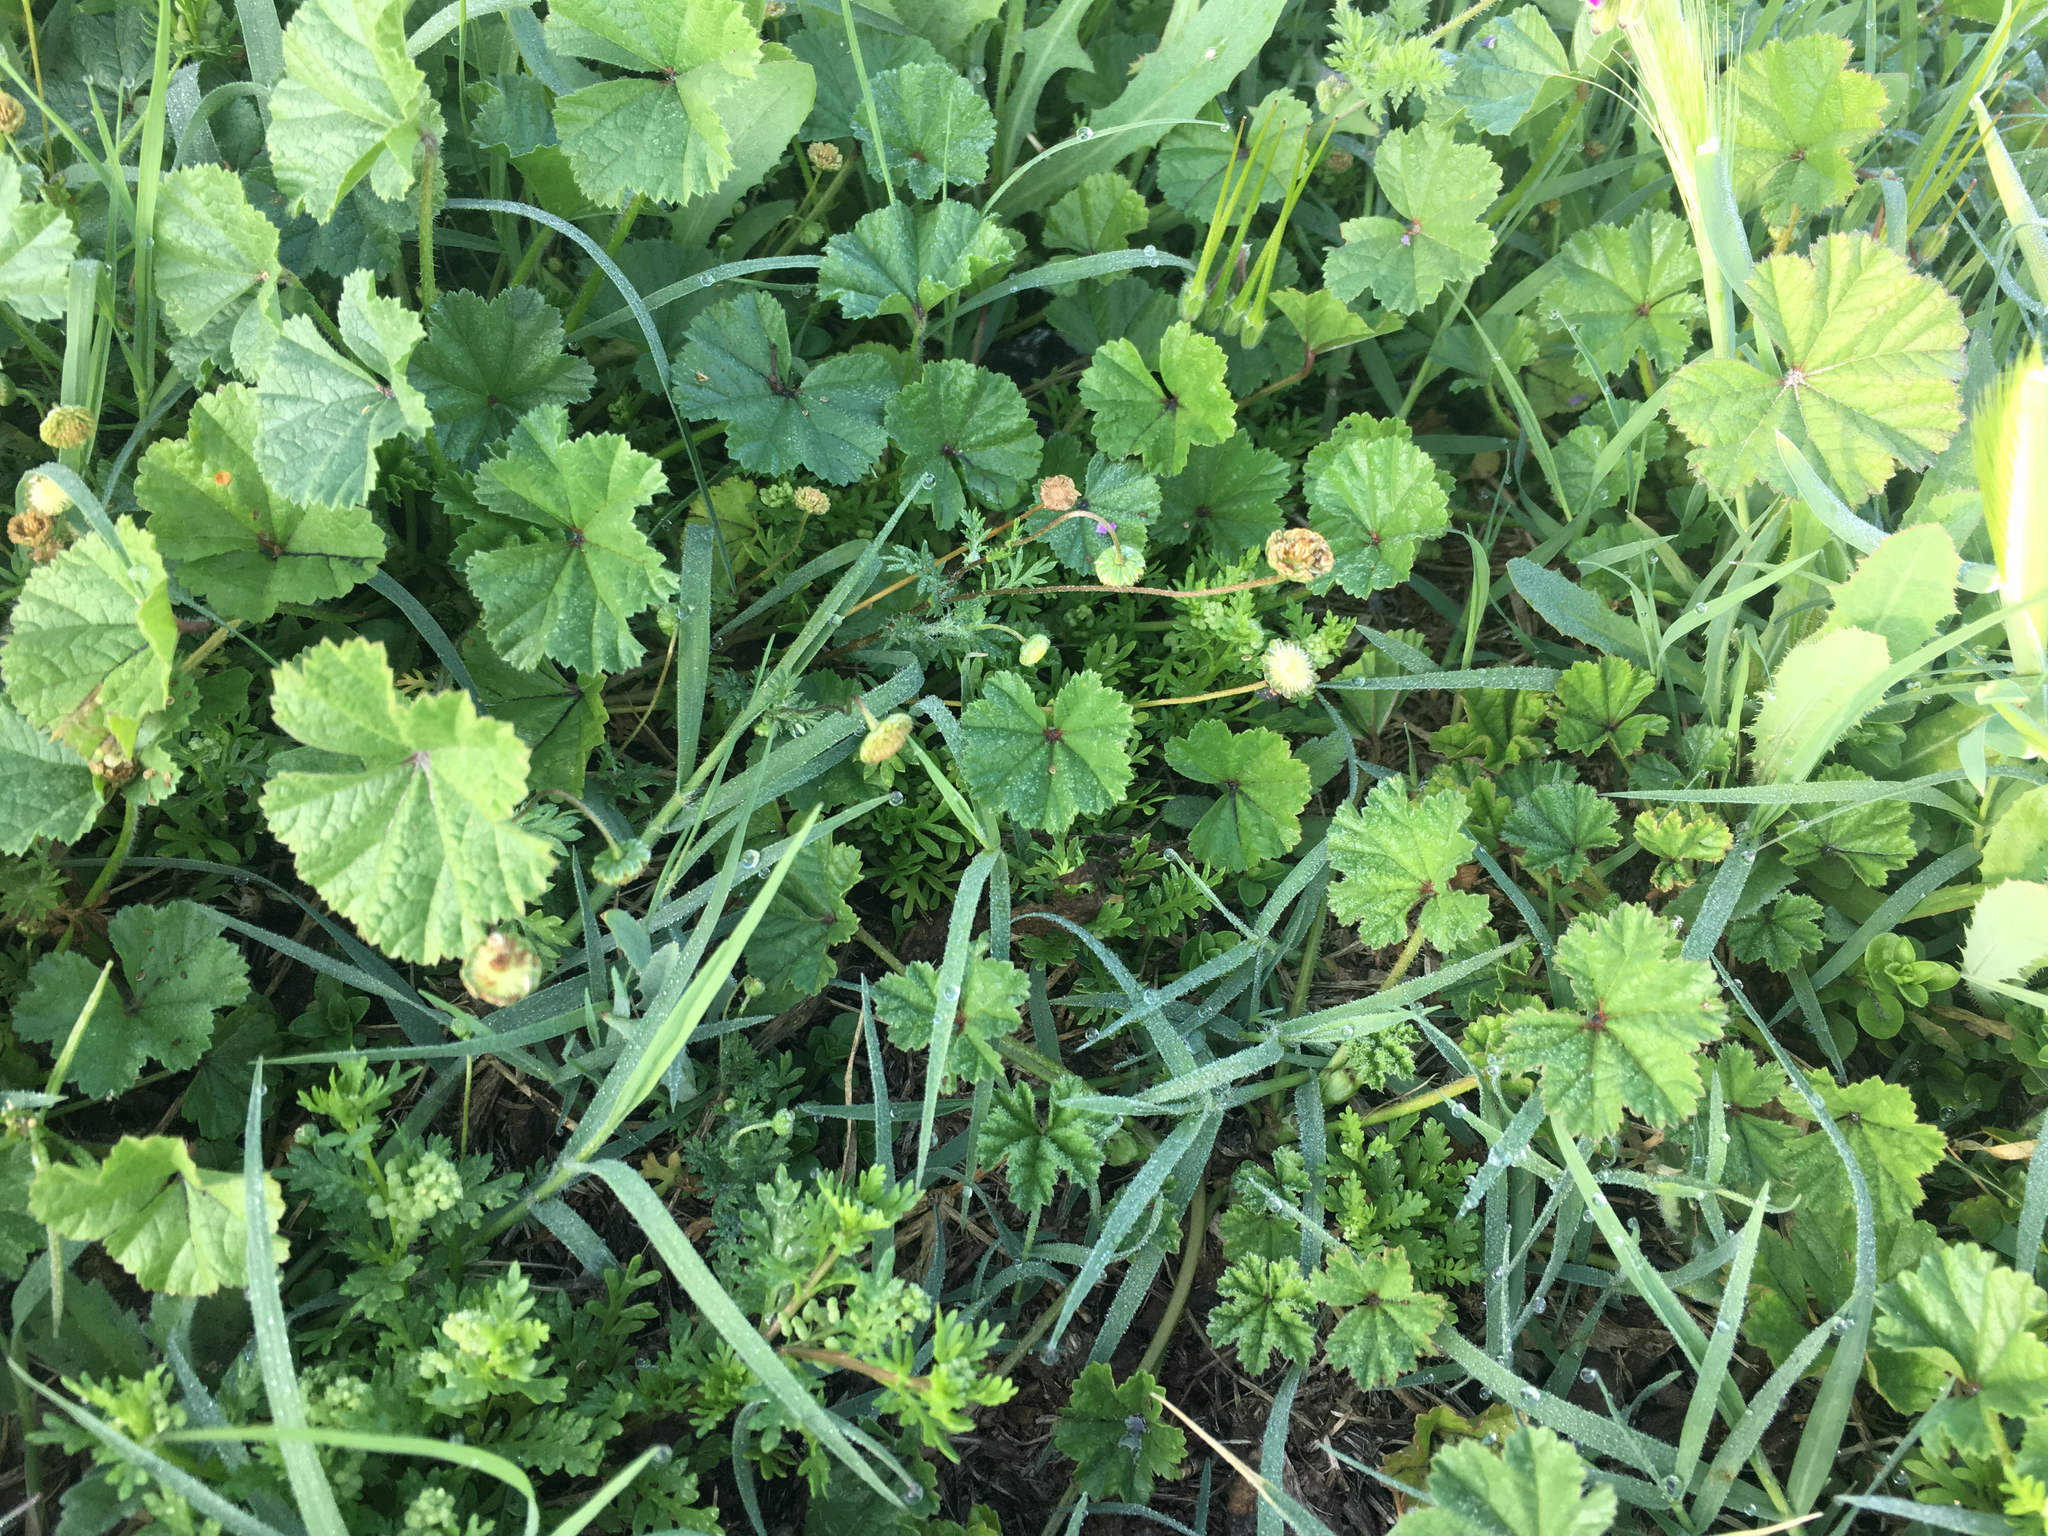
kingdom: Plantae
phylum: Tracheophyta
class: Magnoliopsida
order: Asterales
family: Asteraceae
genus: Cotula
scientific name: Cotula australis
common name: Australian waterbuttons
